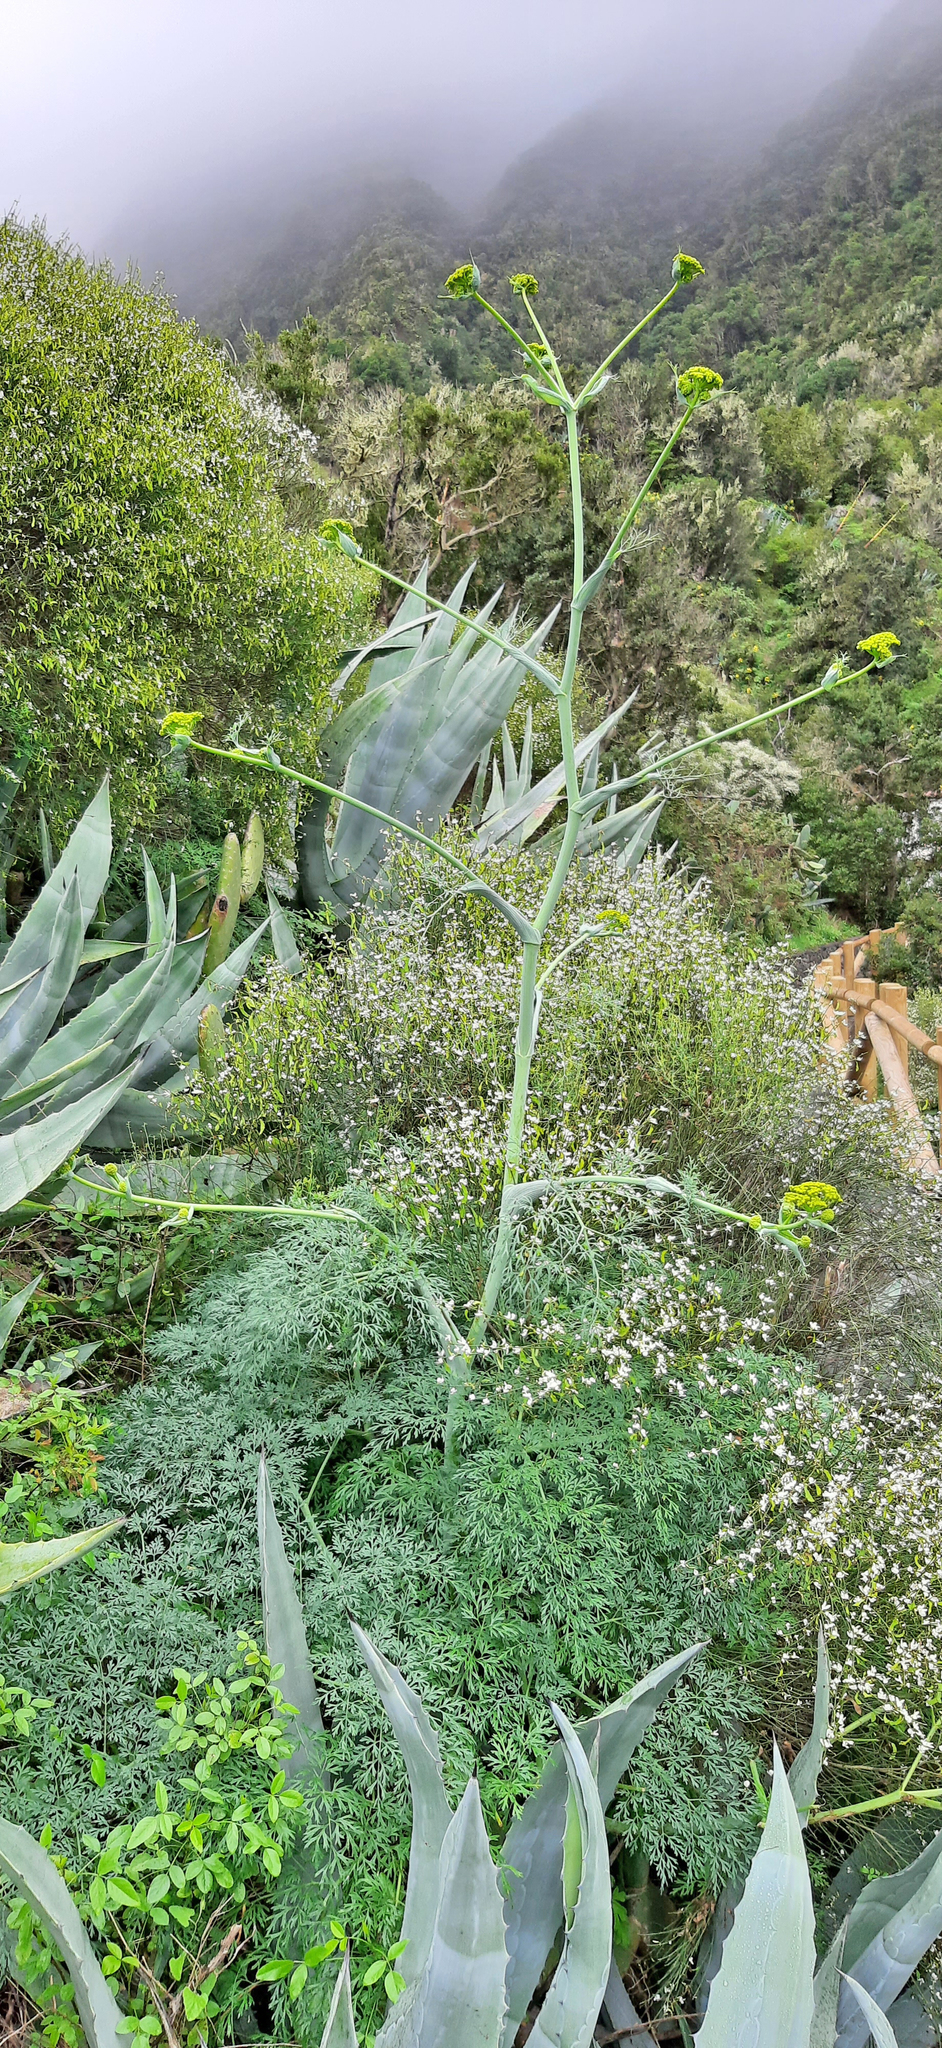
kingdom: Plantae
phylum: Tracheophyta
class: Magnoliopsida
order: Apiales
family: Apiaceae
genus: Foeniculum
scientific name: Foeniculum vulgare
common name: Fennel
